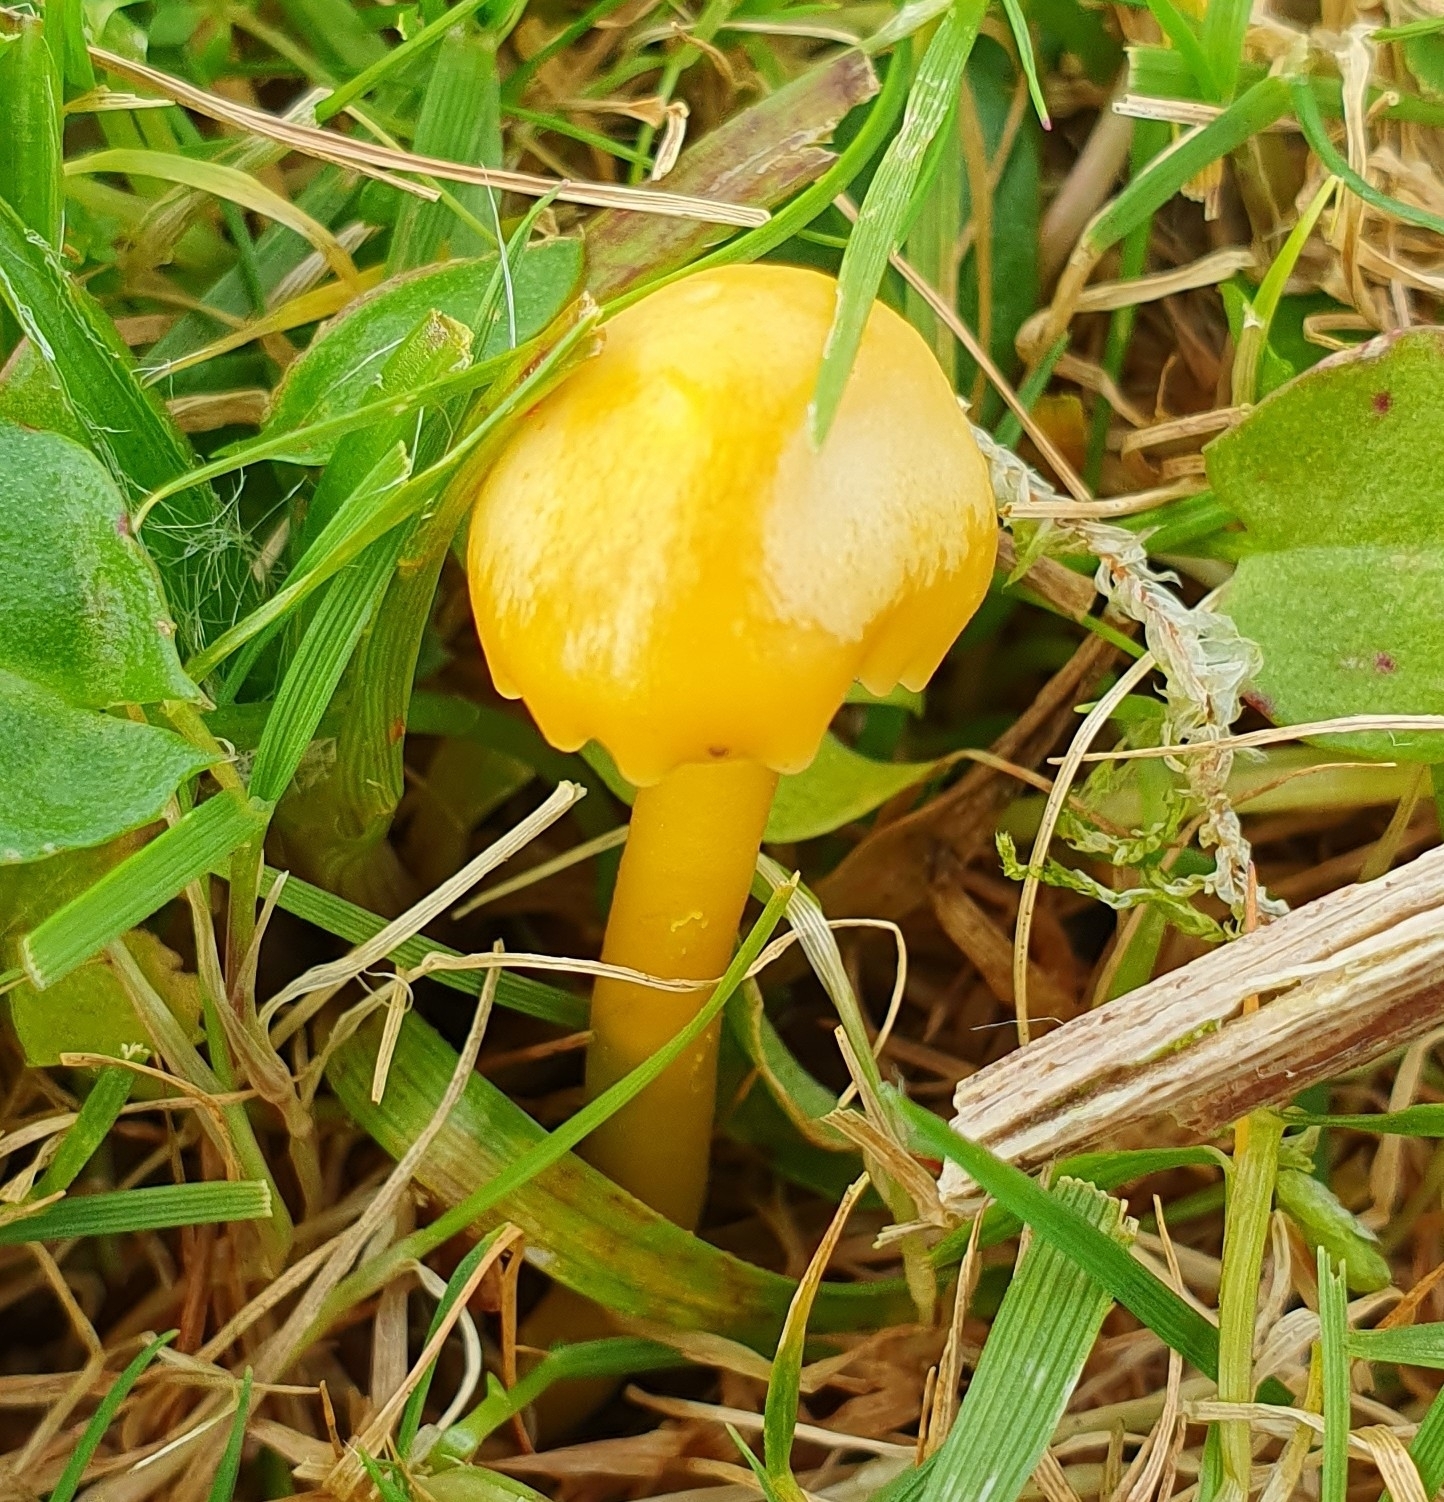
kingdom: Fungi
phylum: Basidiomycota
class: Agaricomycetes
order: Agaricales
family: Hygrophoraceae
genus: Gliophorus
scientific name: Gliophorus psittacinus
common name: Parrot wax-cap
